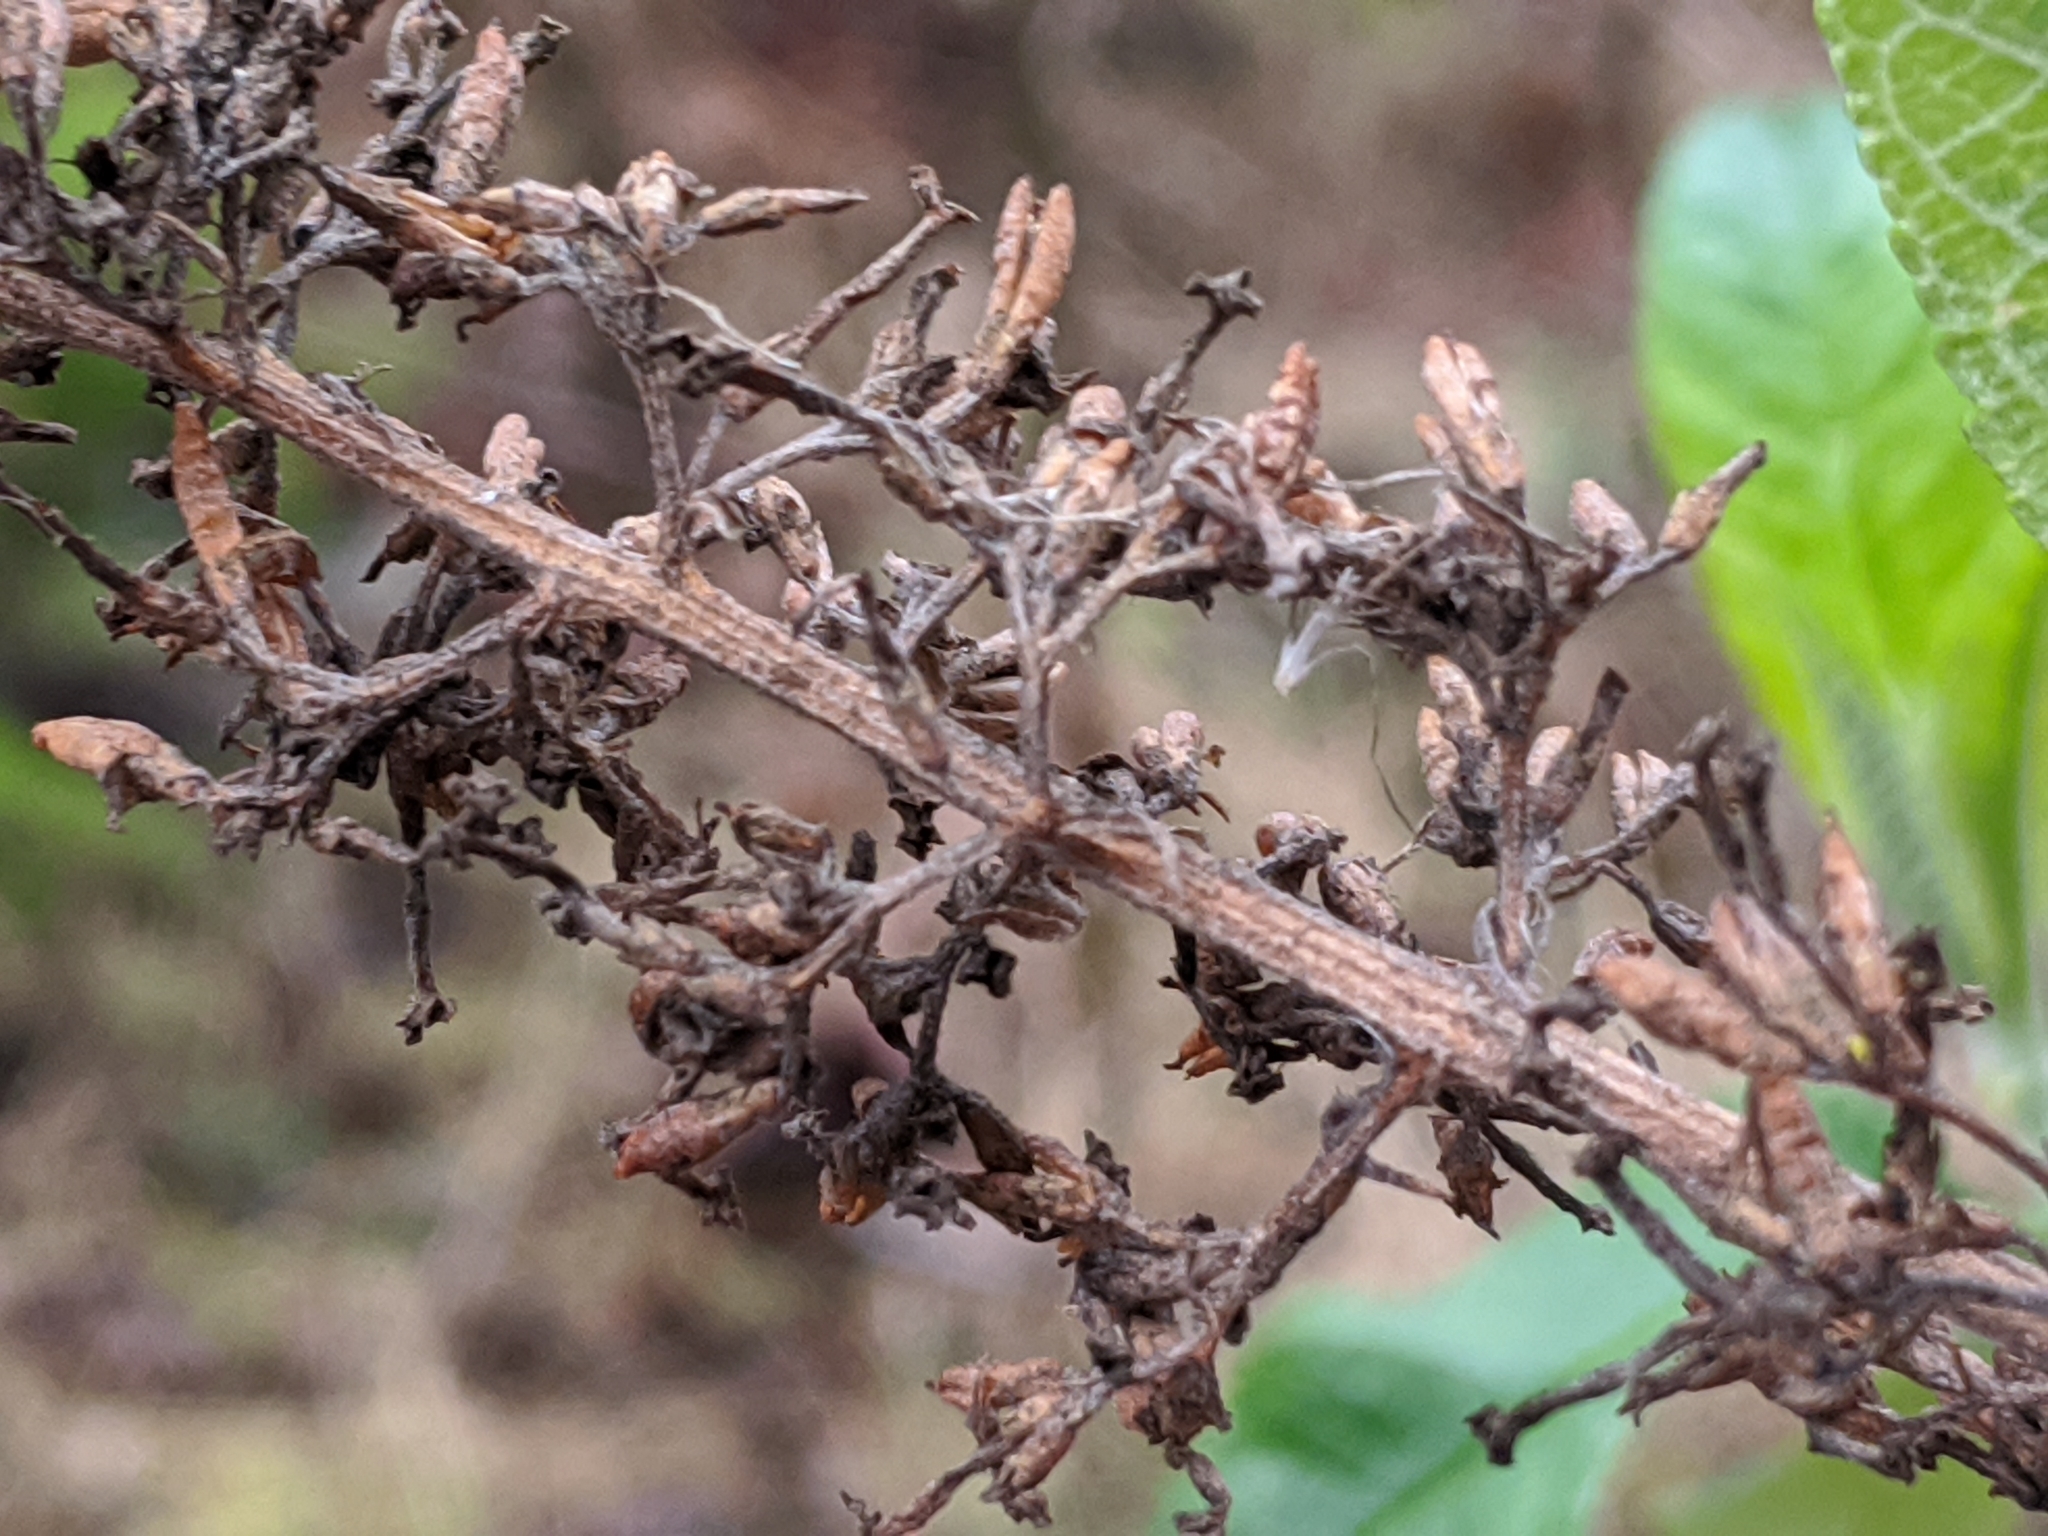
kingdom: Plantae
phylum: Tracheophyta
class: Magnoliopsida
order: Lamiales
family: Scrophulariaceae
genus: Buddleja
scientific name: Buddleja davidii
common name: Butterfly-bush
